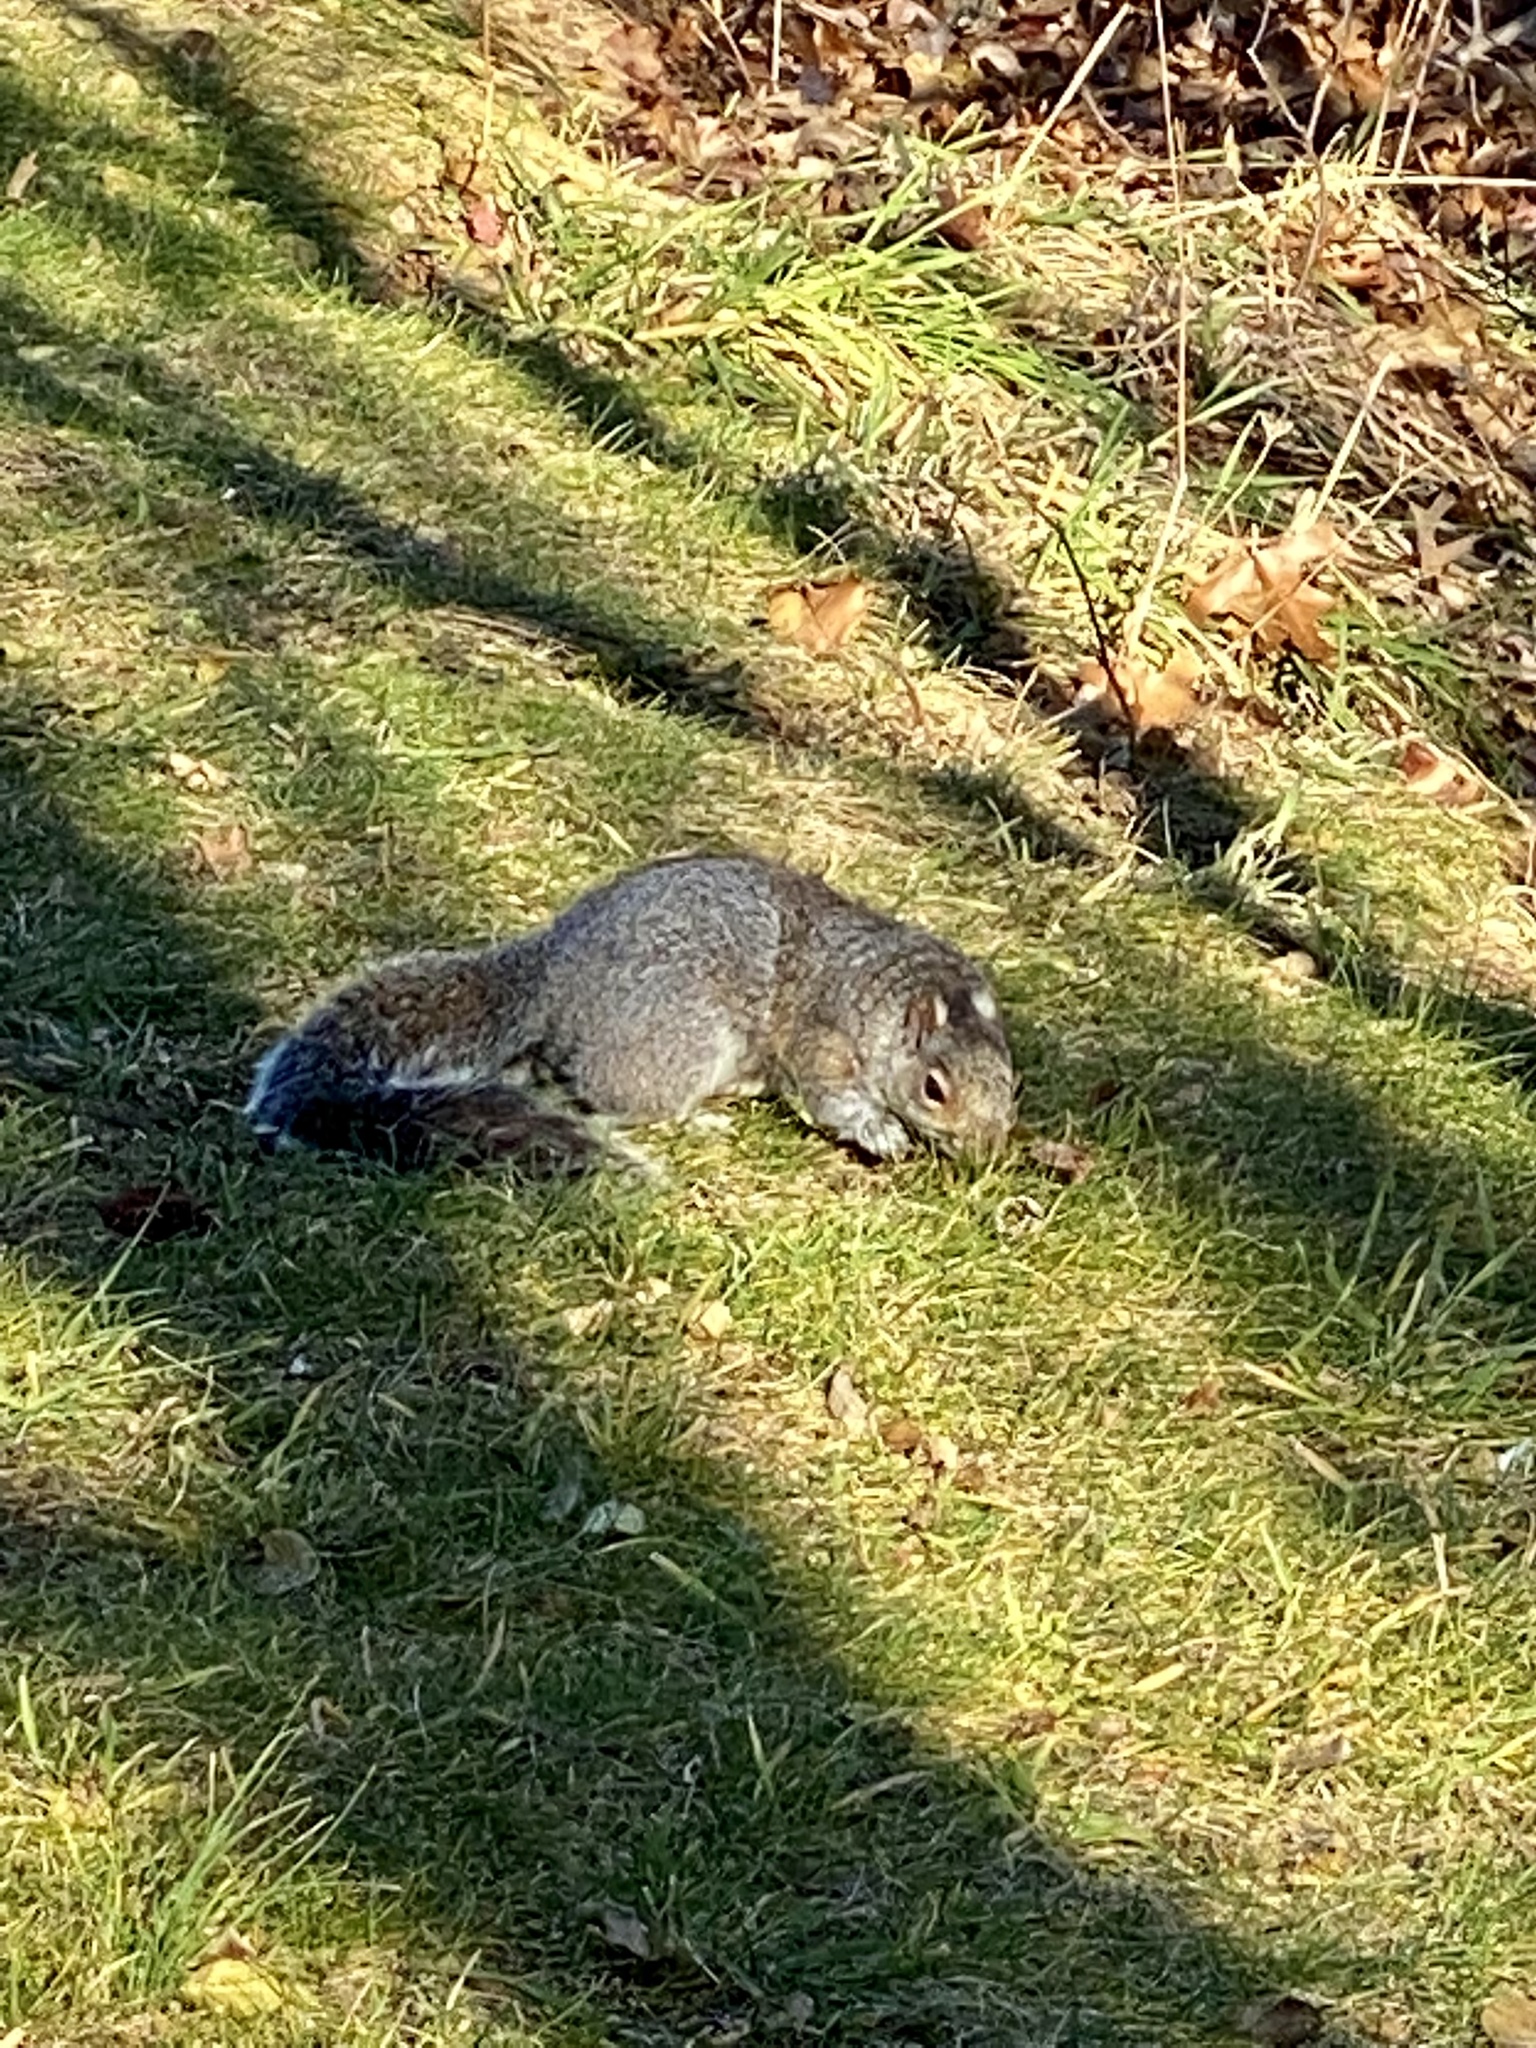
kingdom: Animalia
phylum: Chordata
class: Mammalia
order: Rodentia
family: Sciuridae
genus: Sciurus
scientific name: Sciurus carolinensis
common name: Eastern gray squirrel
